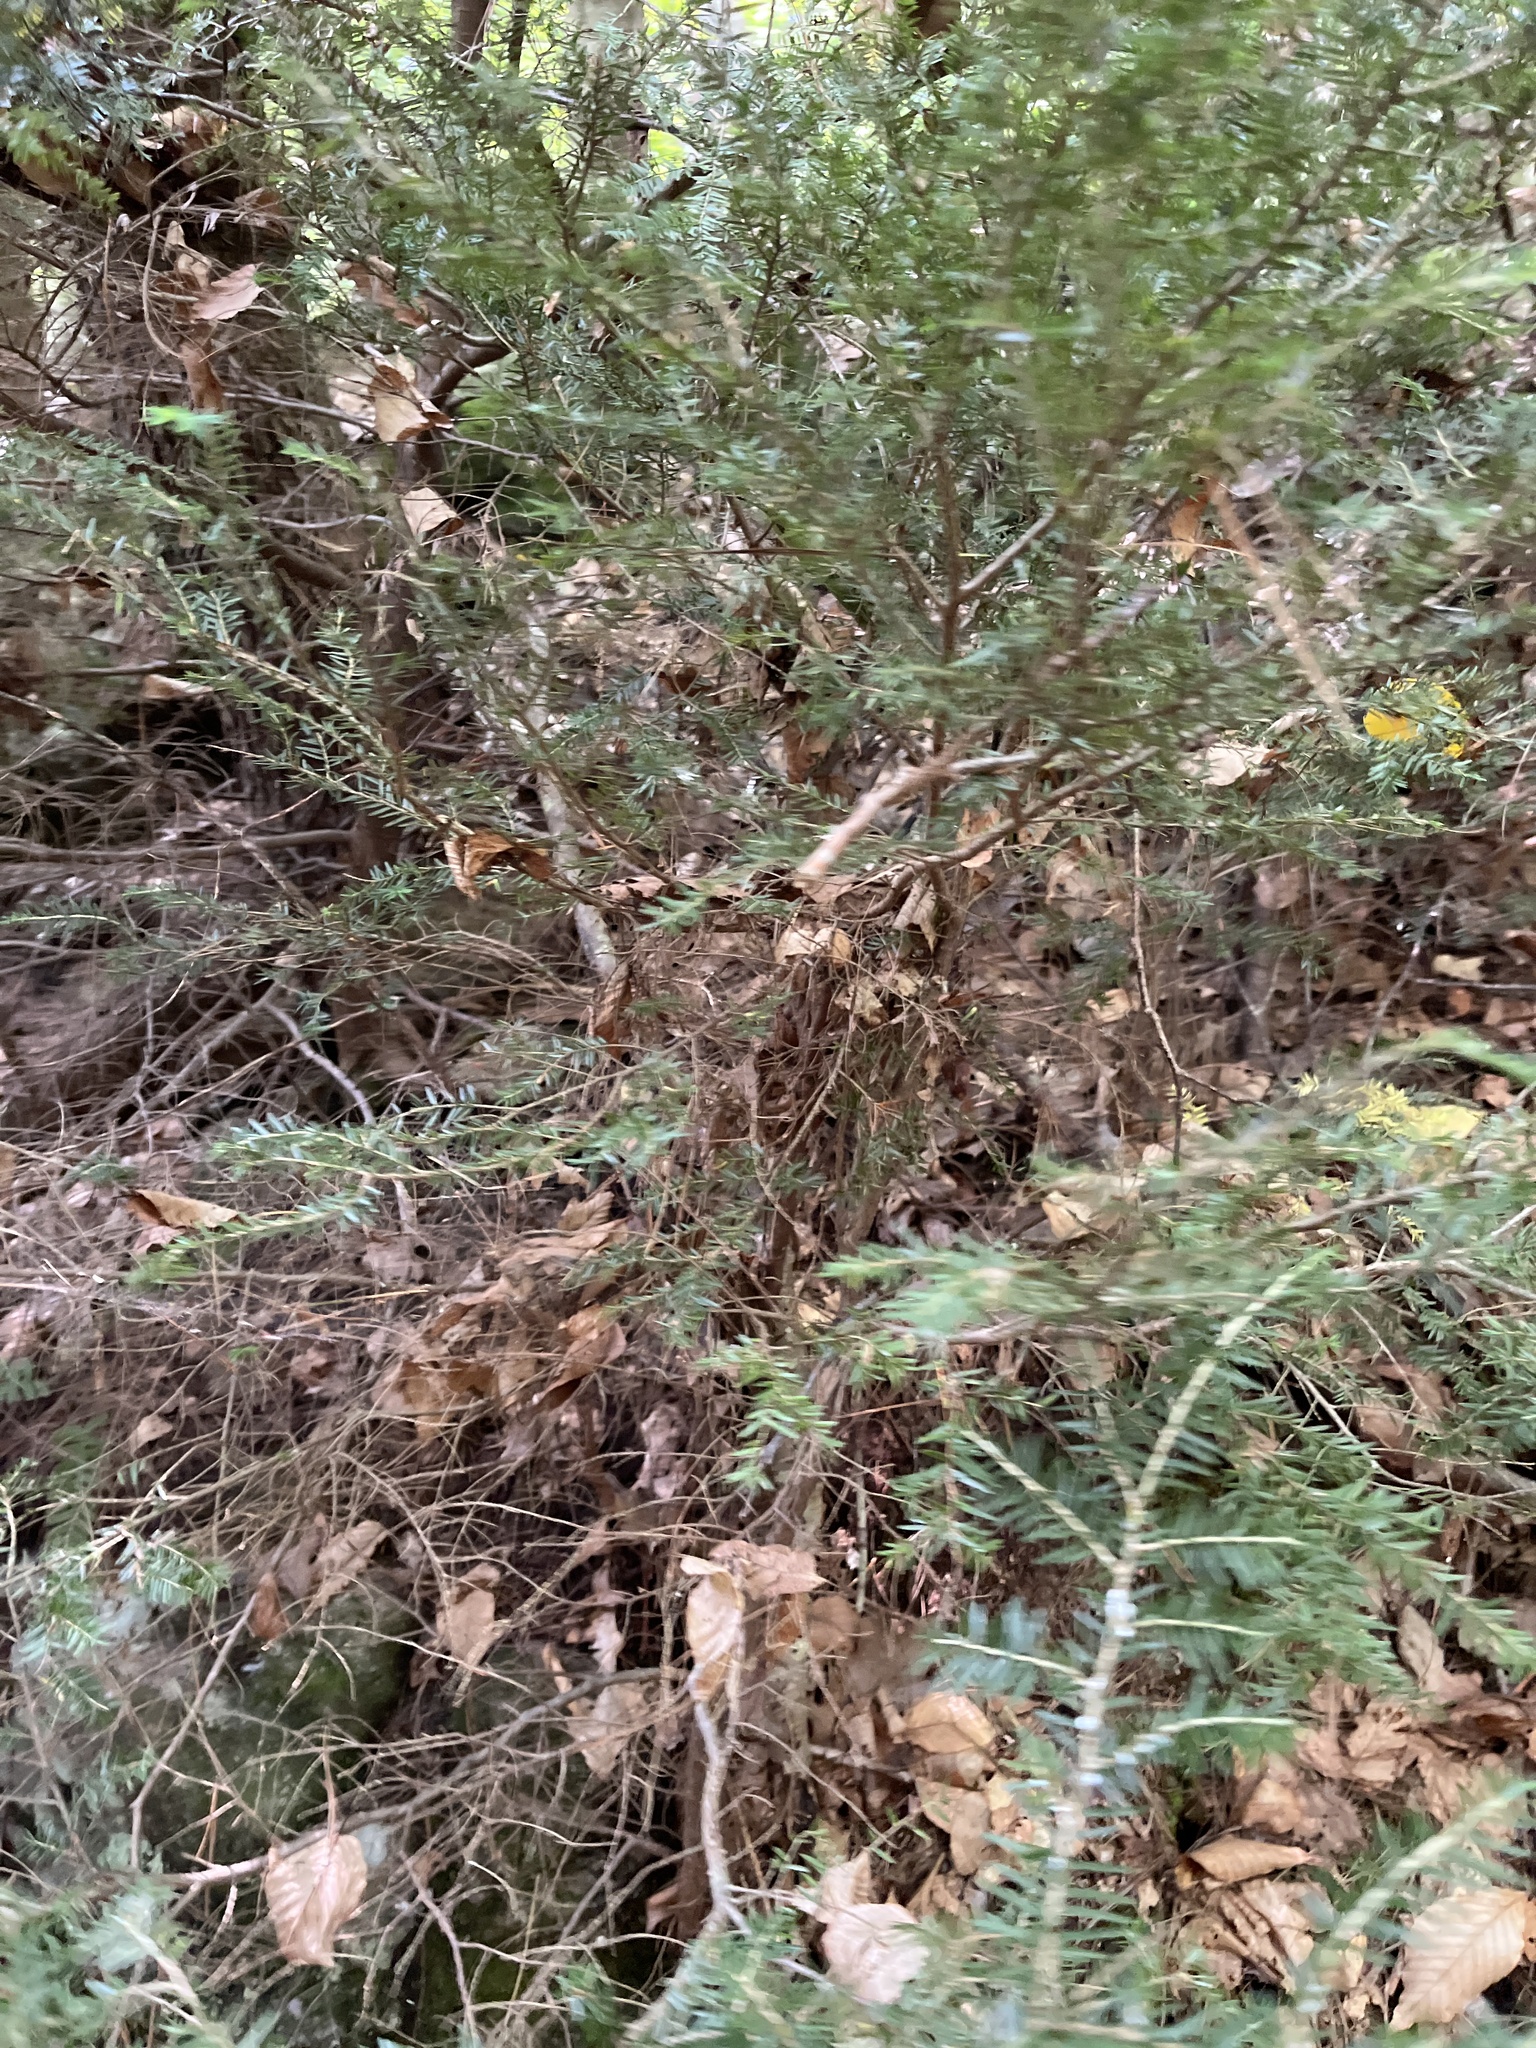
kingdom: Plantae
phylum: Tracheophyta
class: Pinopsida
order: Pinales
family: Pinaceae
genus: Tsuga
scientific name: Tsuga canadensis
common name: Eastern hemlock
